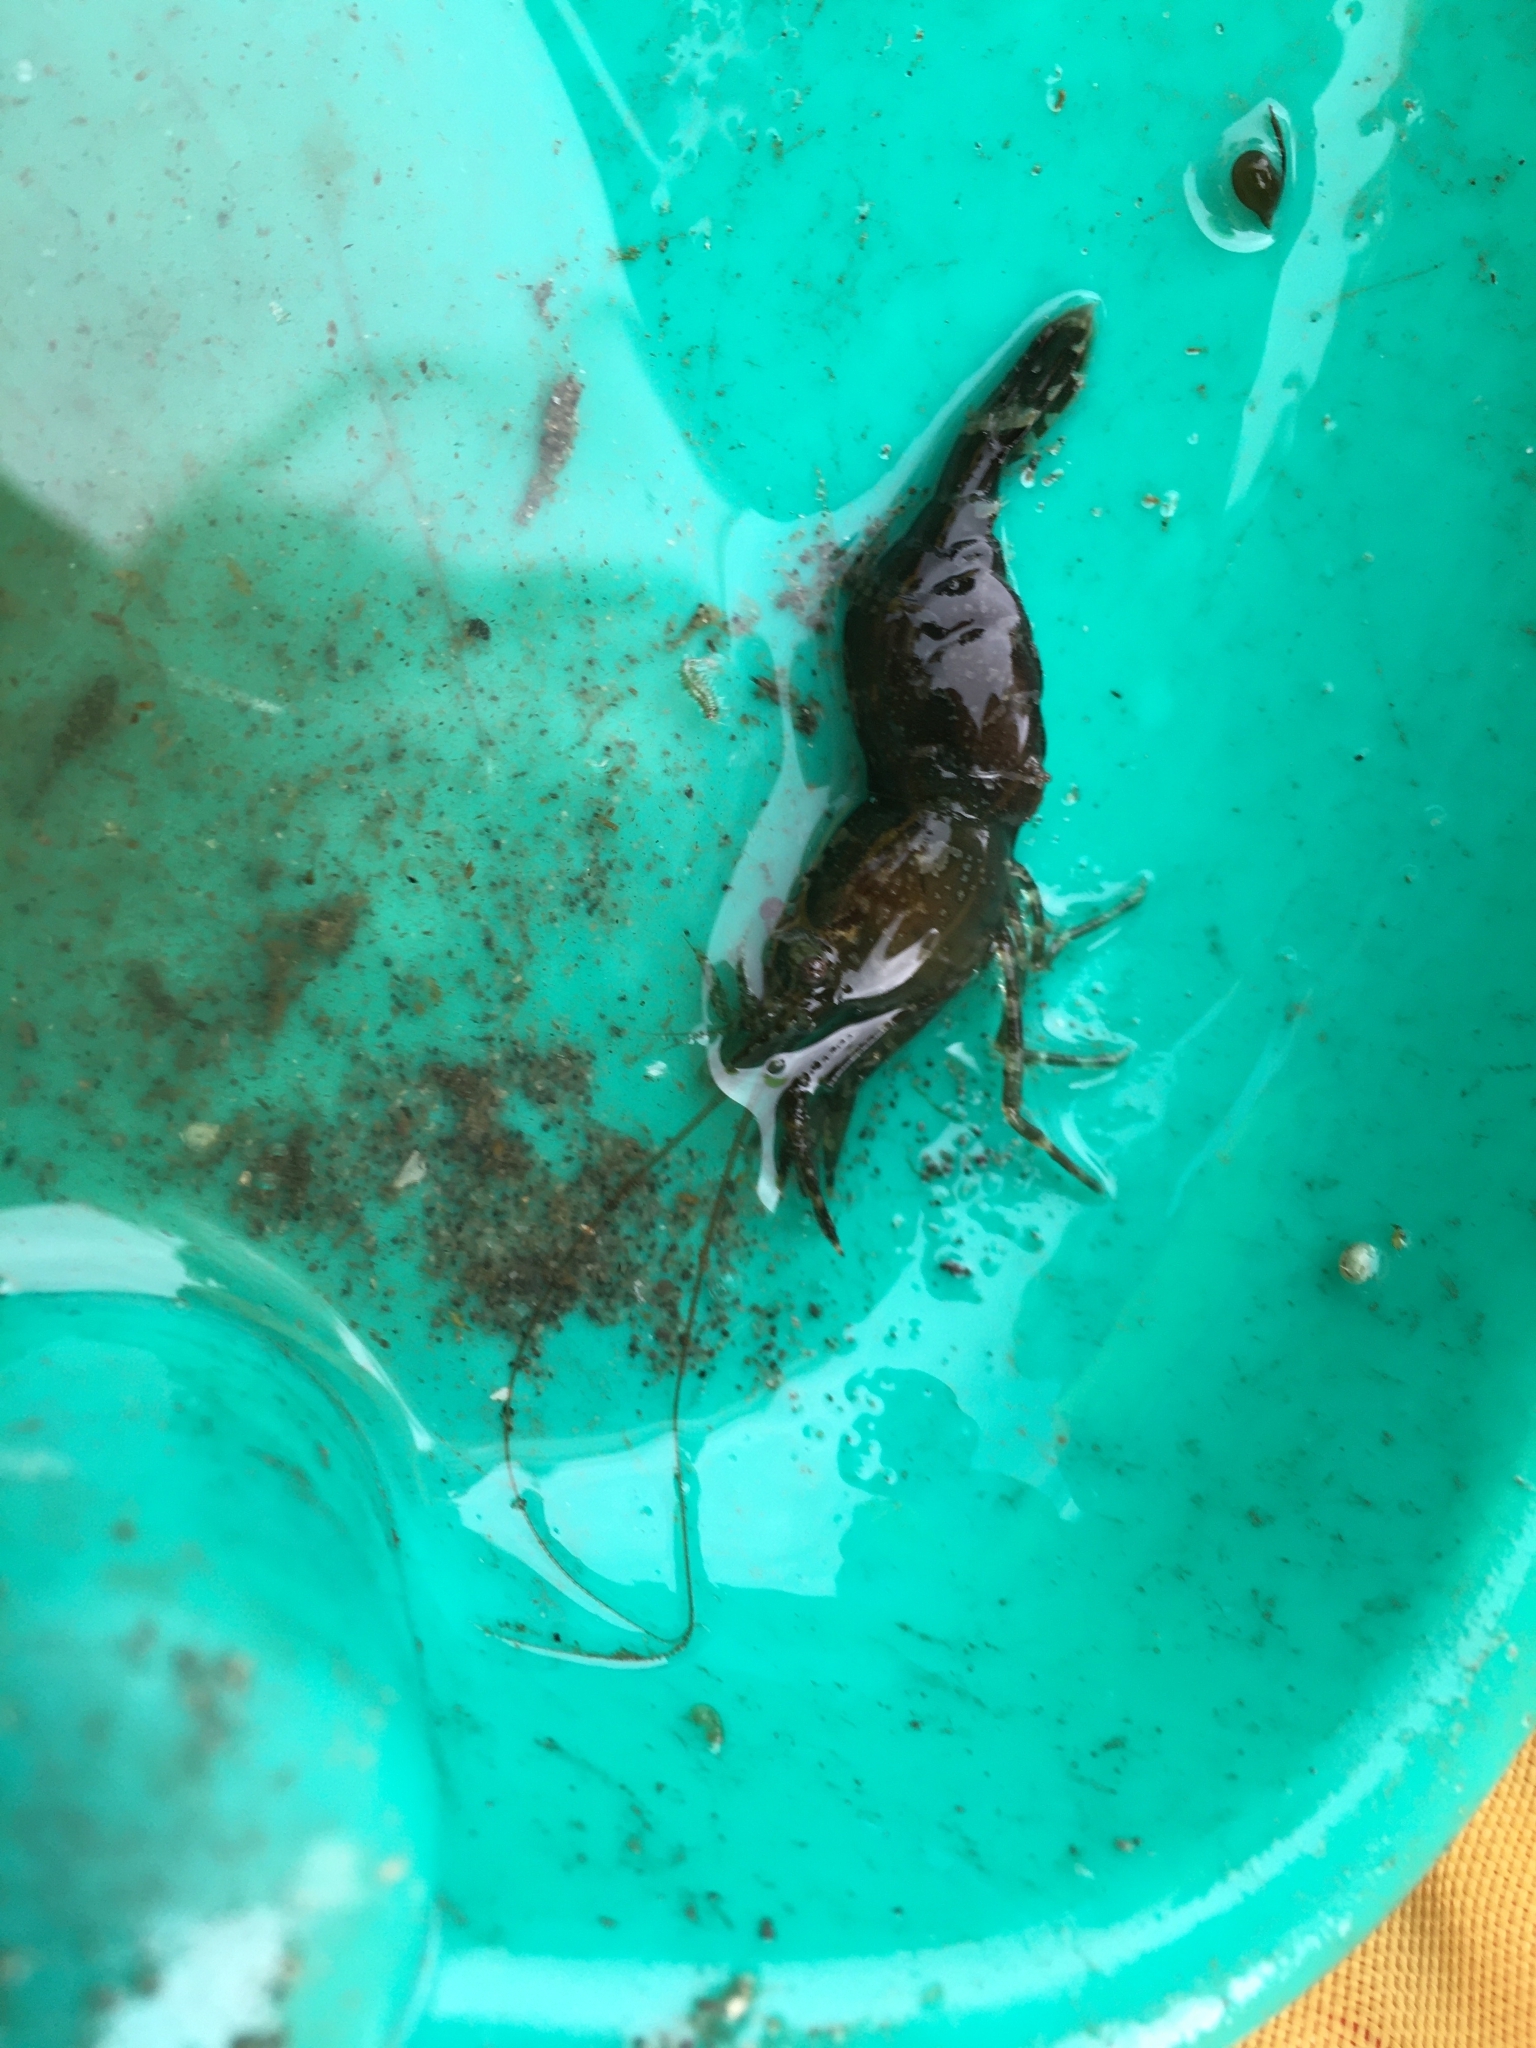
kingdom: Animalia
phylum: Arthropoda
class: Malacostraca
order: Decapoda
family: Thoridae
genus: Heptacarpus
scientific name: Heptacarpus brevirostris
